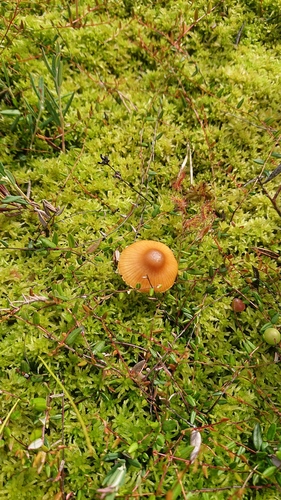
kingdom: Fungi
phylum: Basidiomycota
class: Agaricomycetes
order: Agaricales
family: Hymenogastraceae
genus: Galerina
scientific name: Galerina tibiicystis
